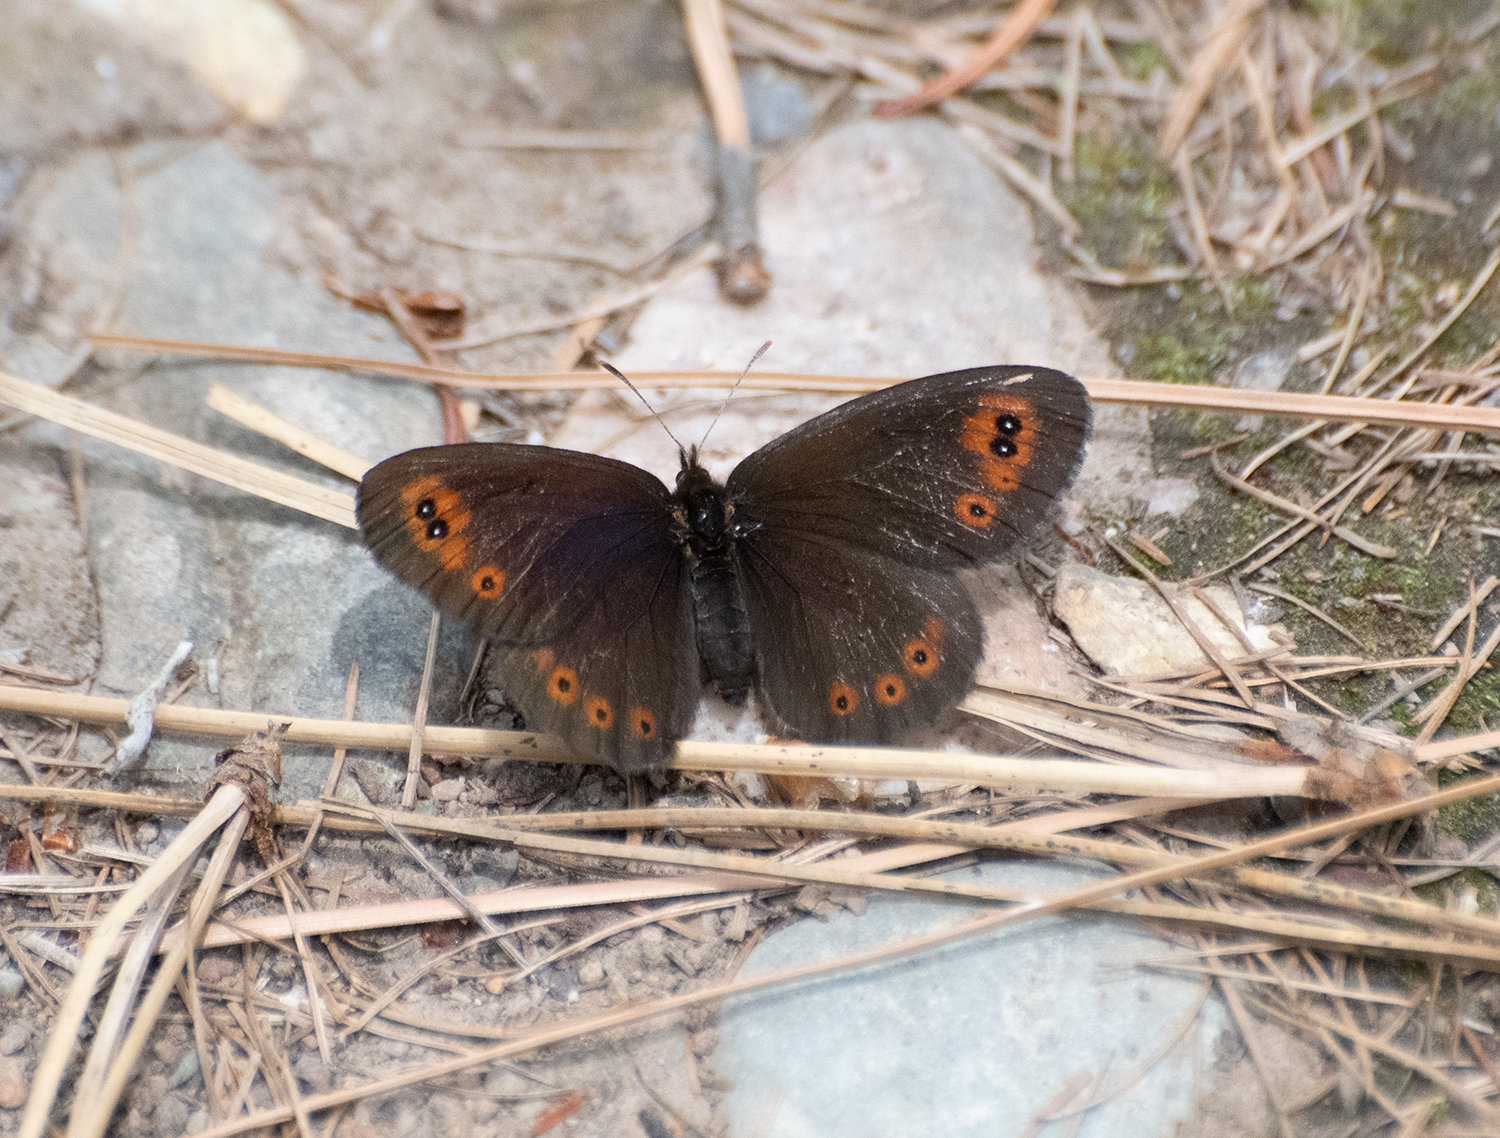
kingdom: Animalia
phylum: Arthropoda
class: Insecta
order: Lepidoptera
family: Nymphalidae
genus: Erebia
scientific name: Erebia epipsodea
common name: Common alpine
